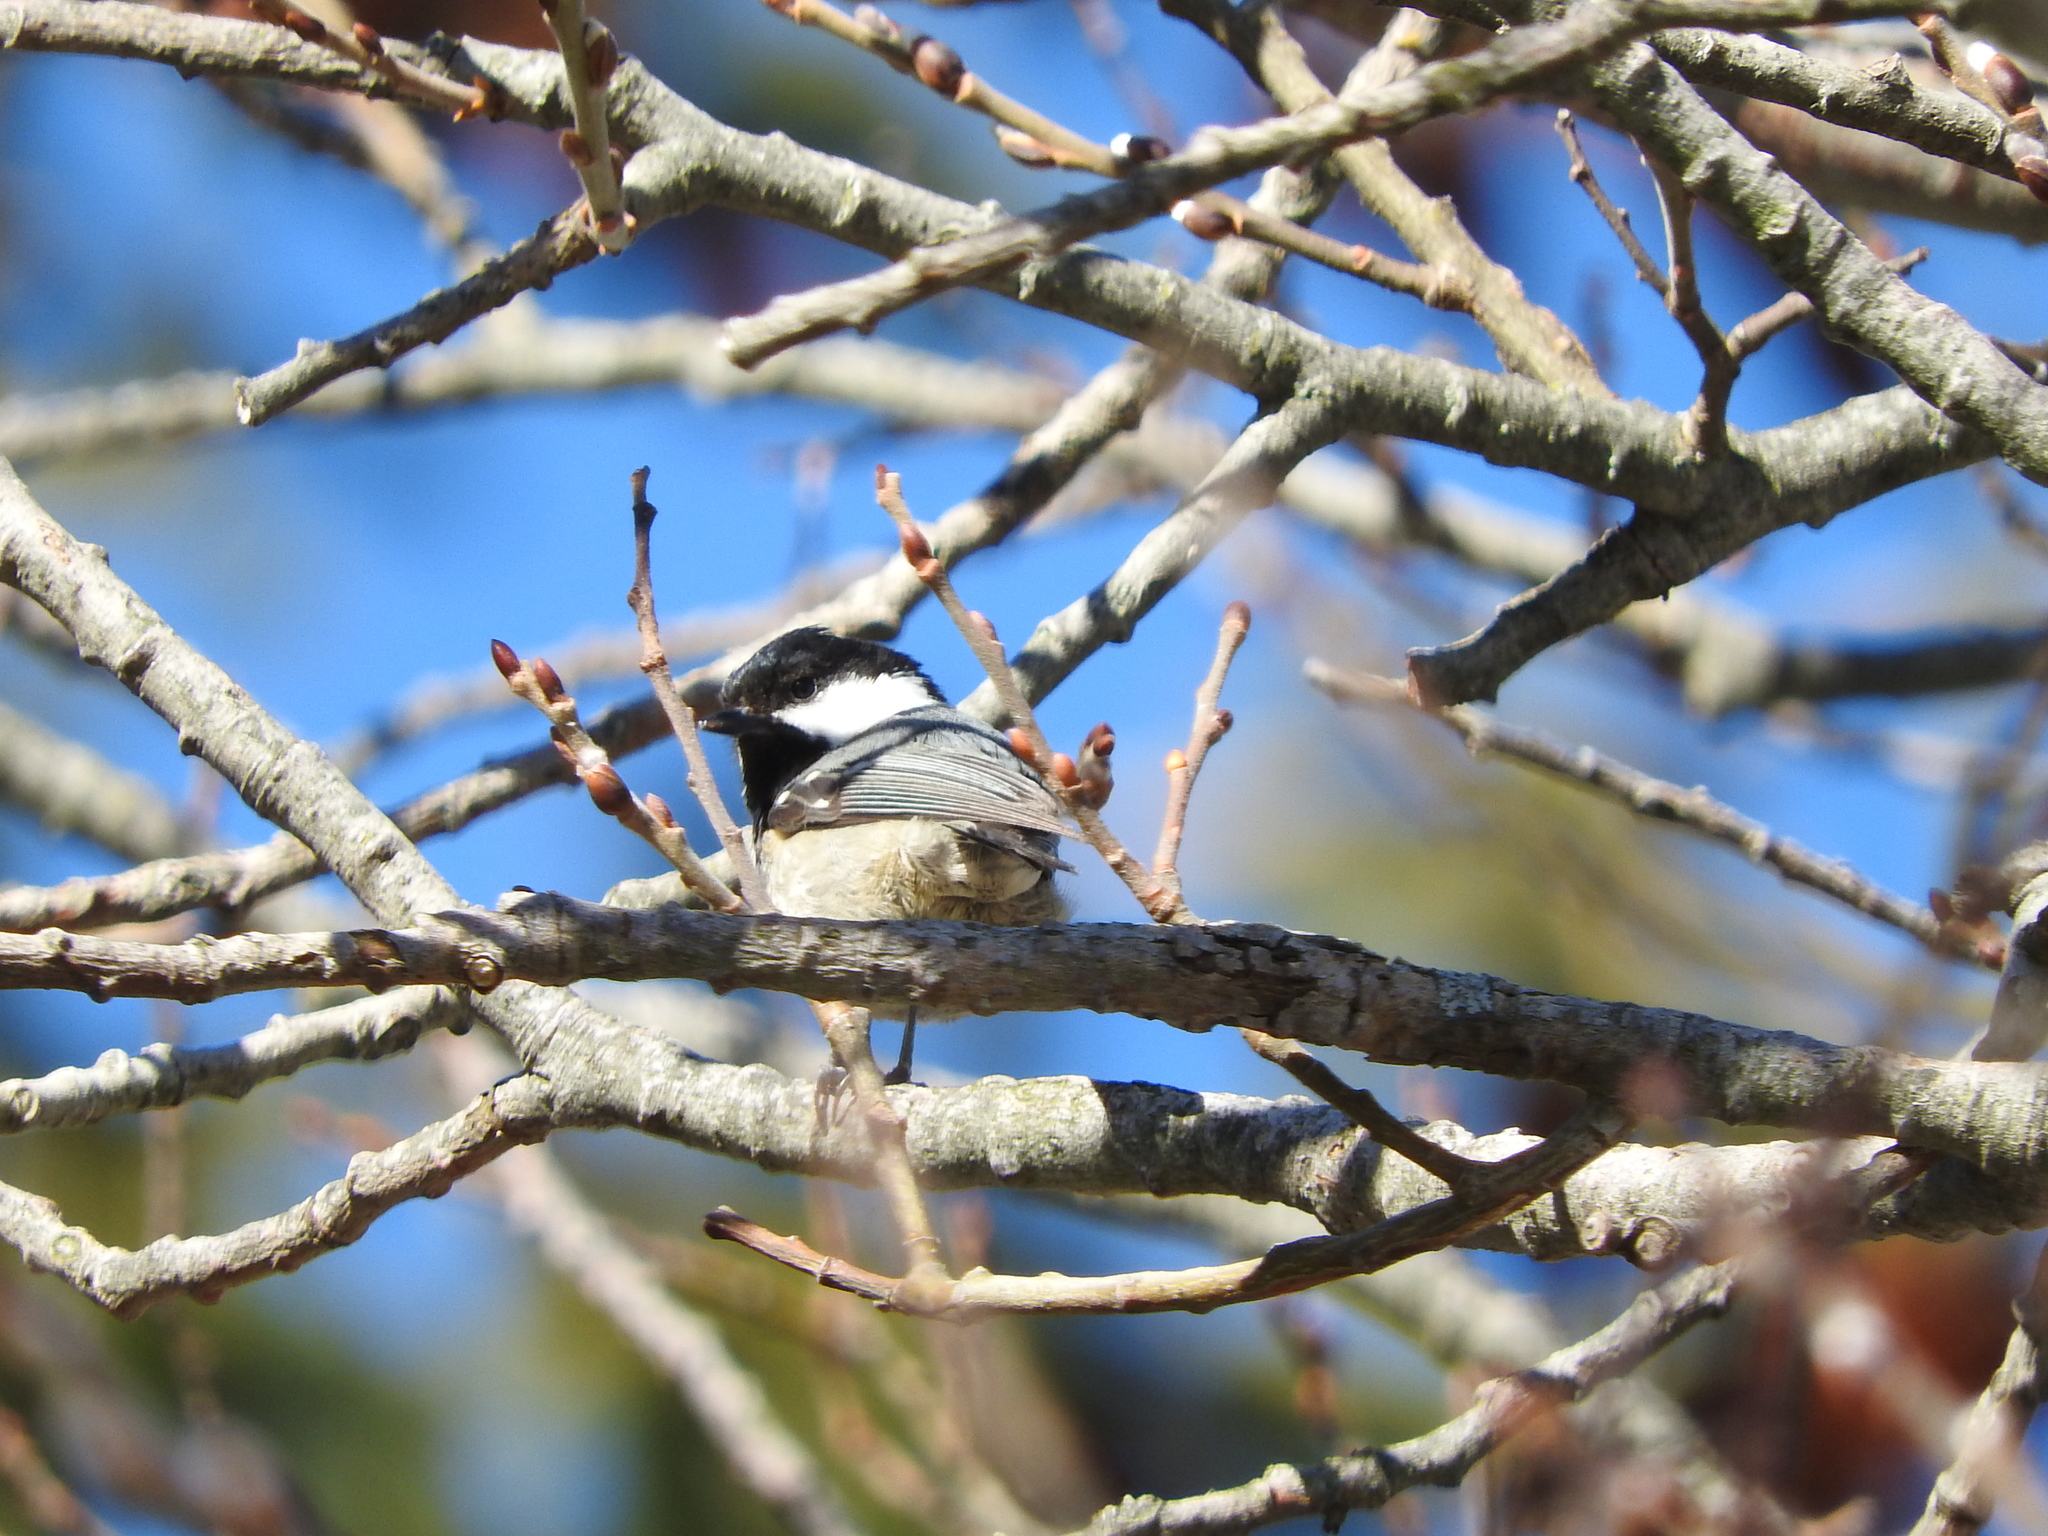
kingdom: Animalia
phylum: Chordata
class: Aves
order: Passeriformes
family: Paridae
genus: Periparus
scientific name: Periparus ater
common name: Coal tit
